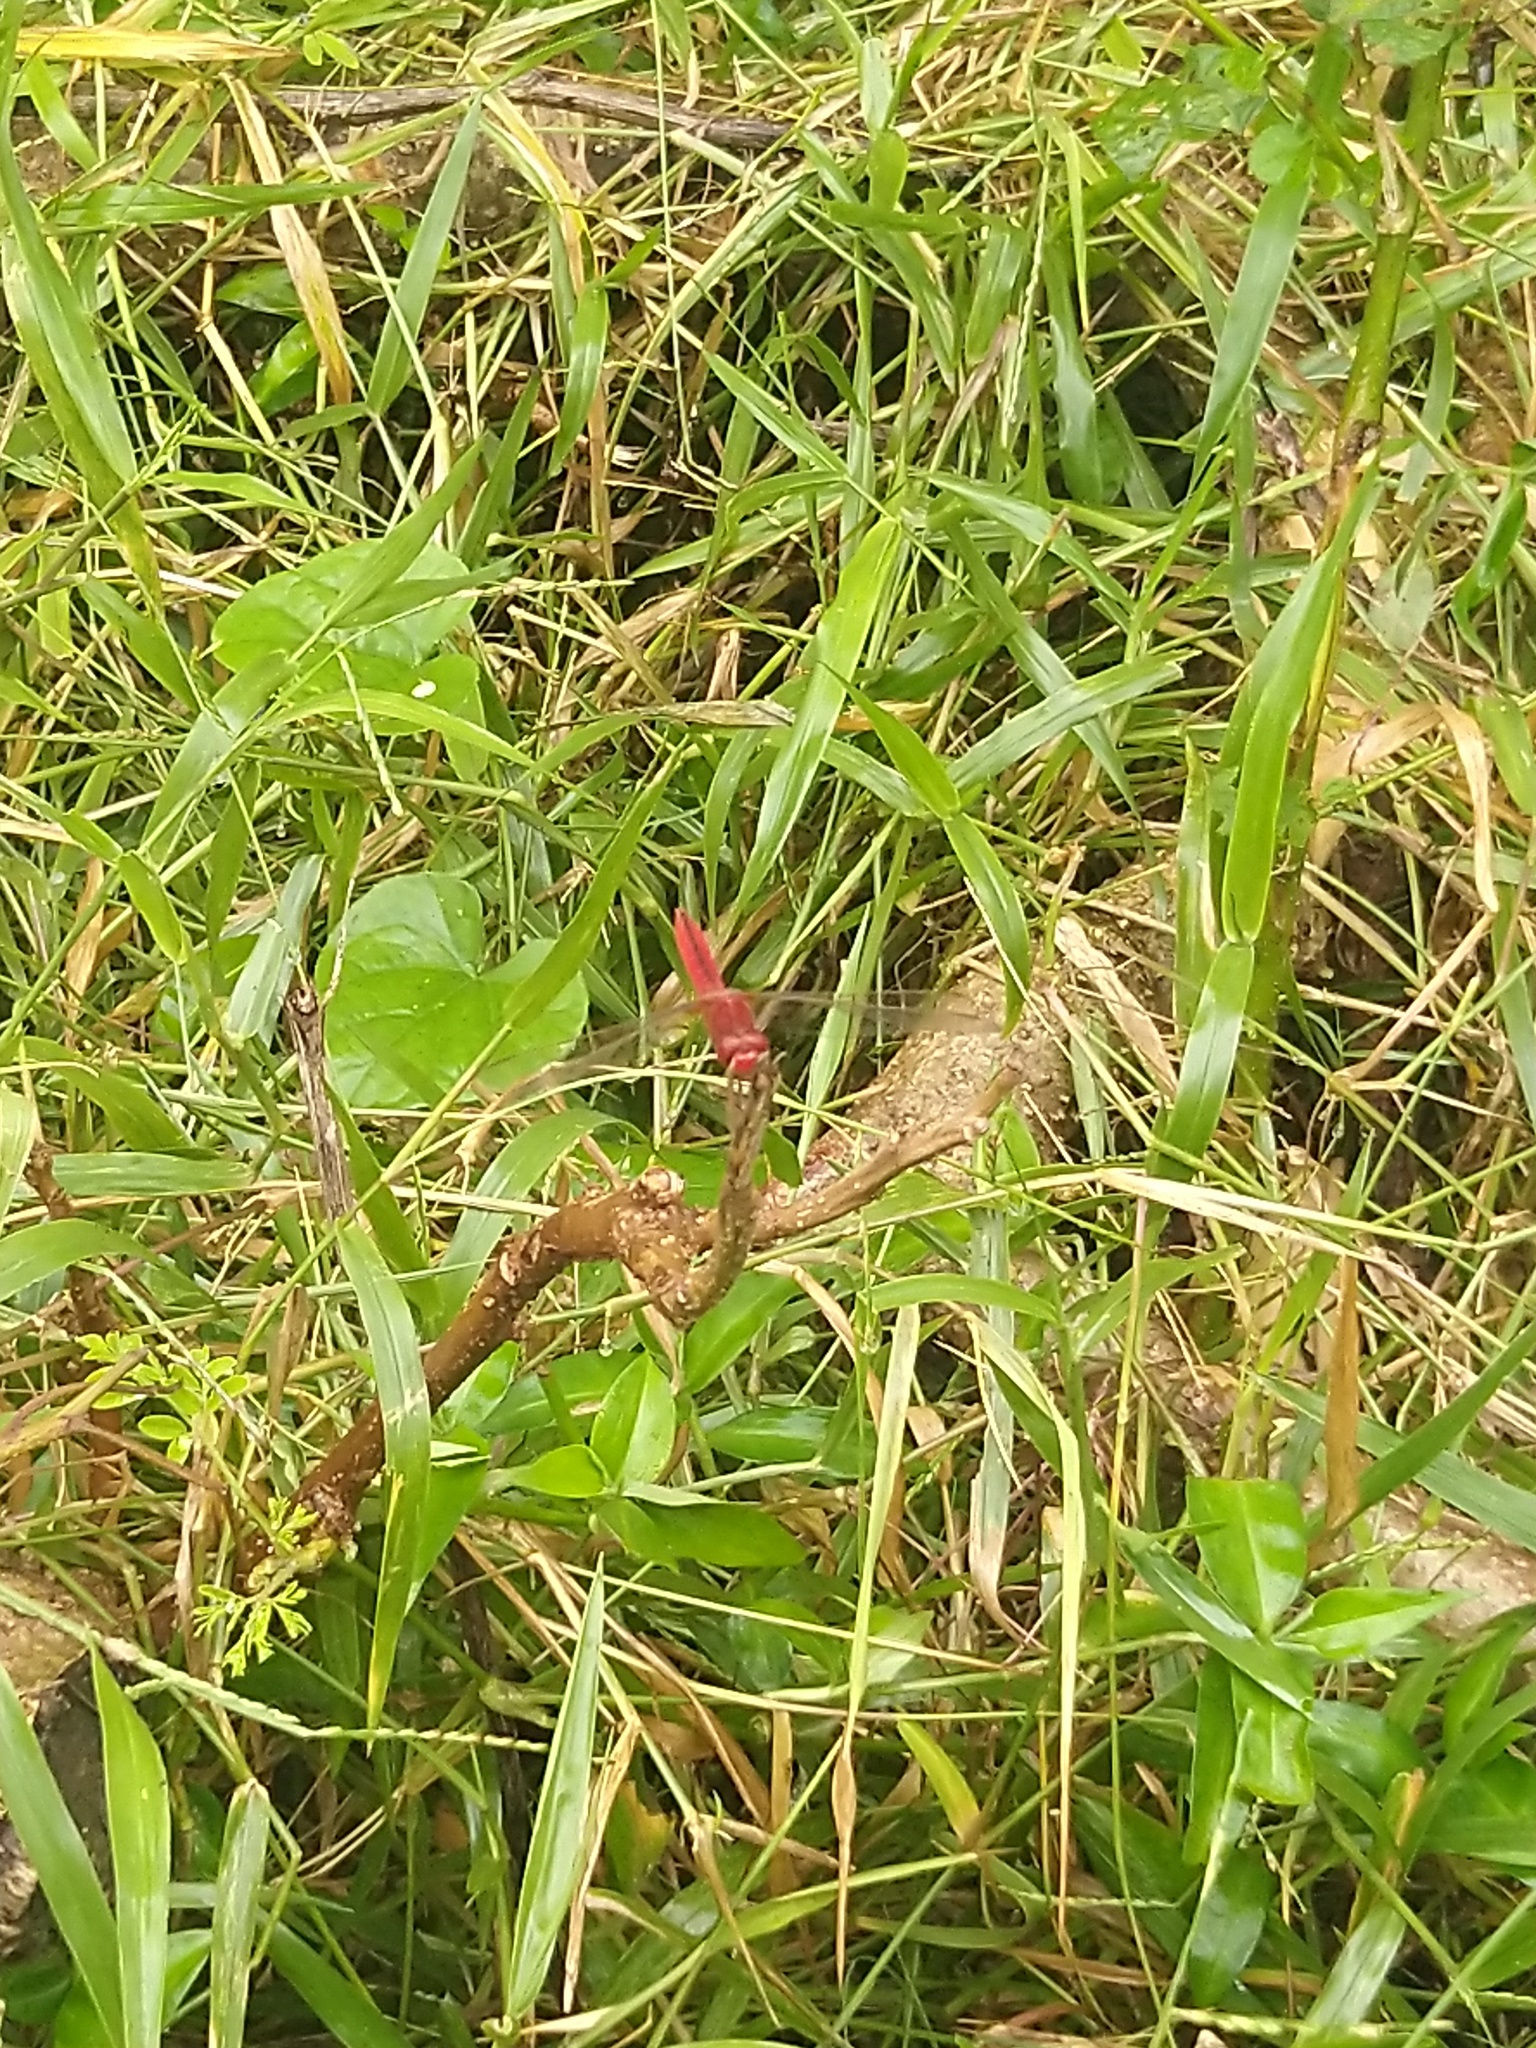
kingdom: Animalia
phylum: Arthropoda
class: Insecta
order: Odonata
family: Libellulidae
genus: Crocothemis
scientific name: Crocothemis servilia
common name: Scarlet skimmer
